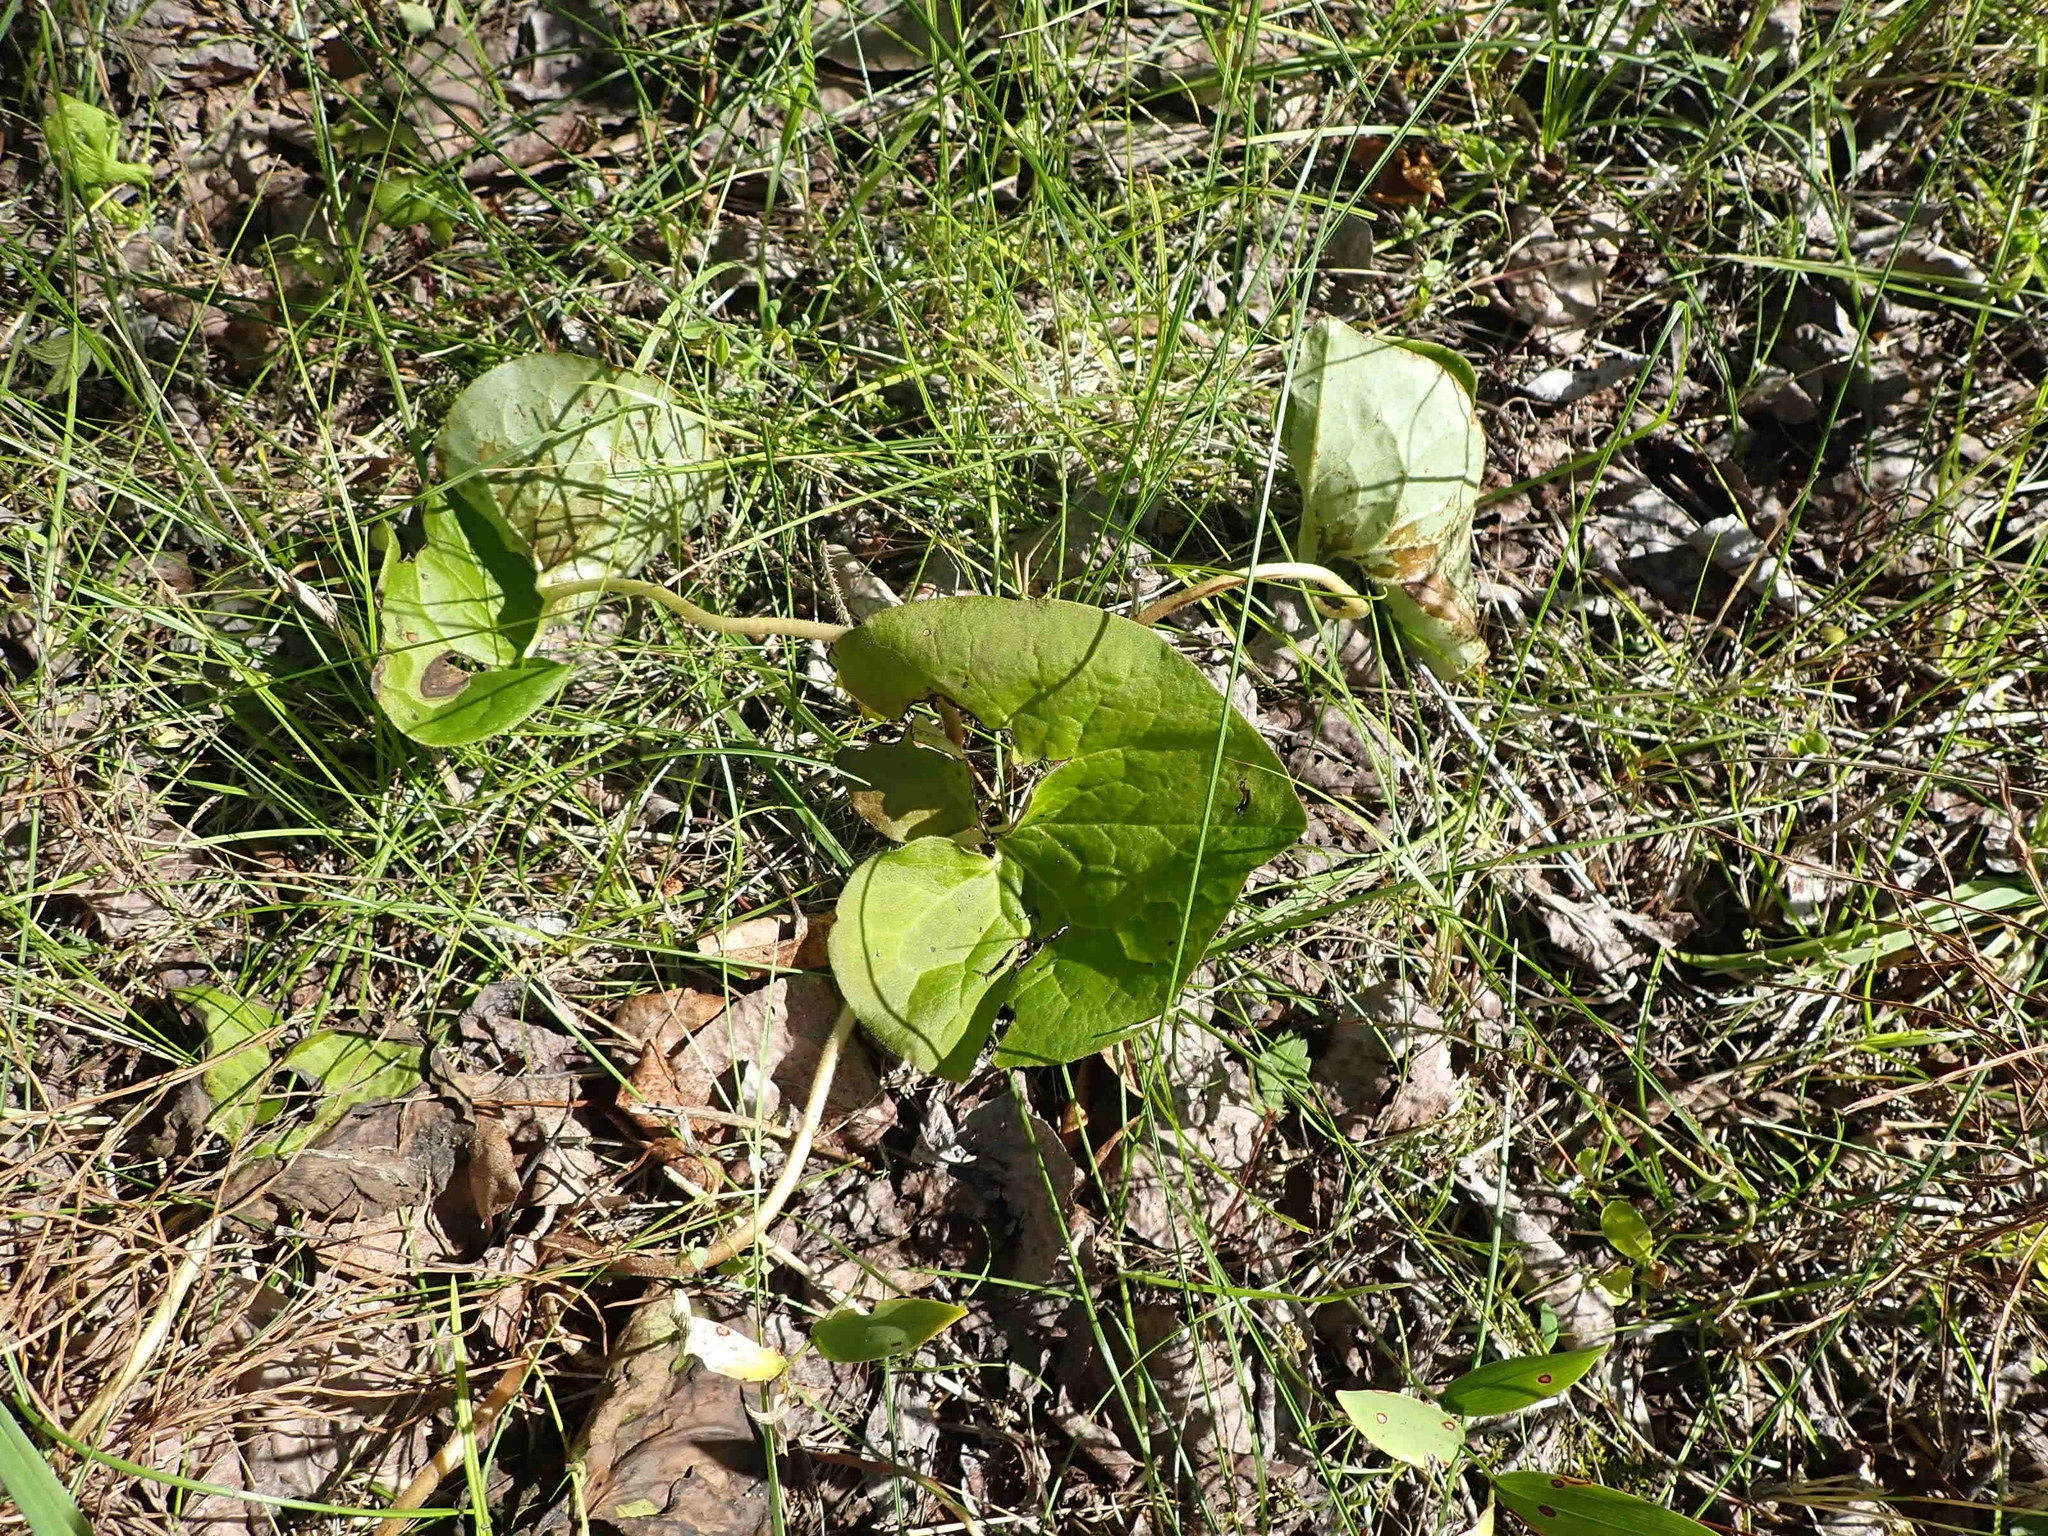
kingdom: Plantae
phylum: Tracheophyta
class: Magnoliopsida
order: Piperales
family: Aristolochiaceae
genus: Asarum
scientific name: Asarum canadense
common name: Wild ginger
